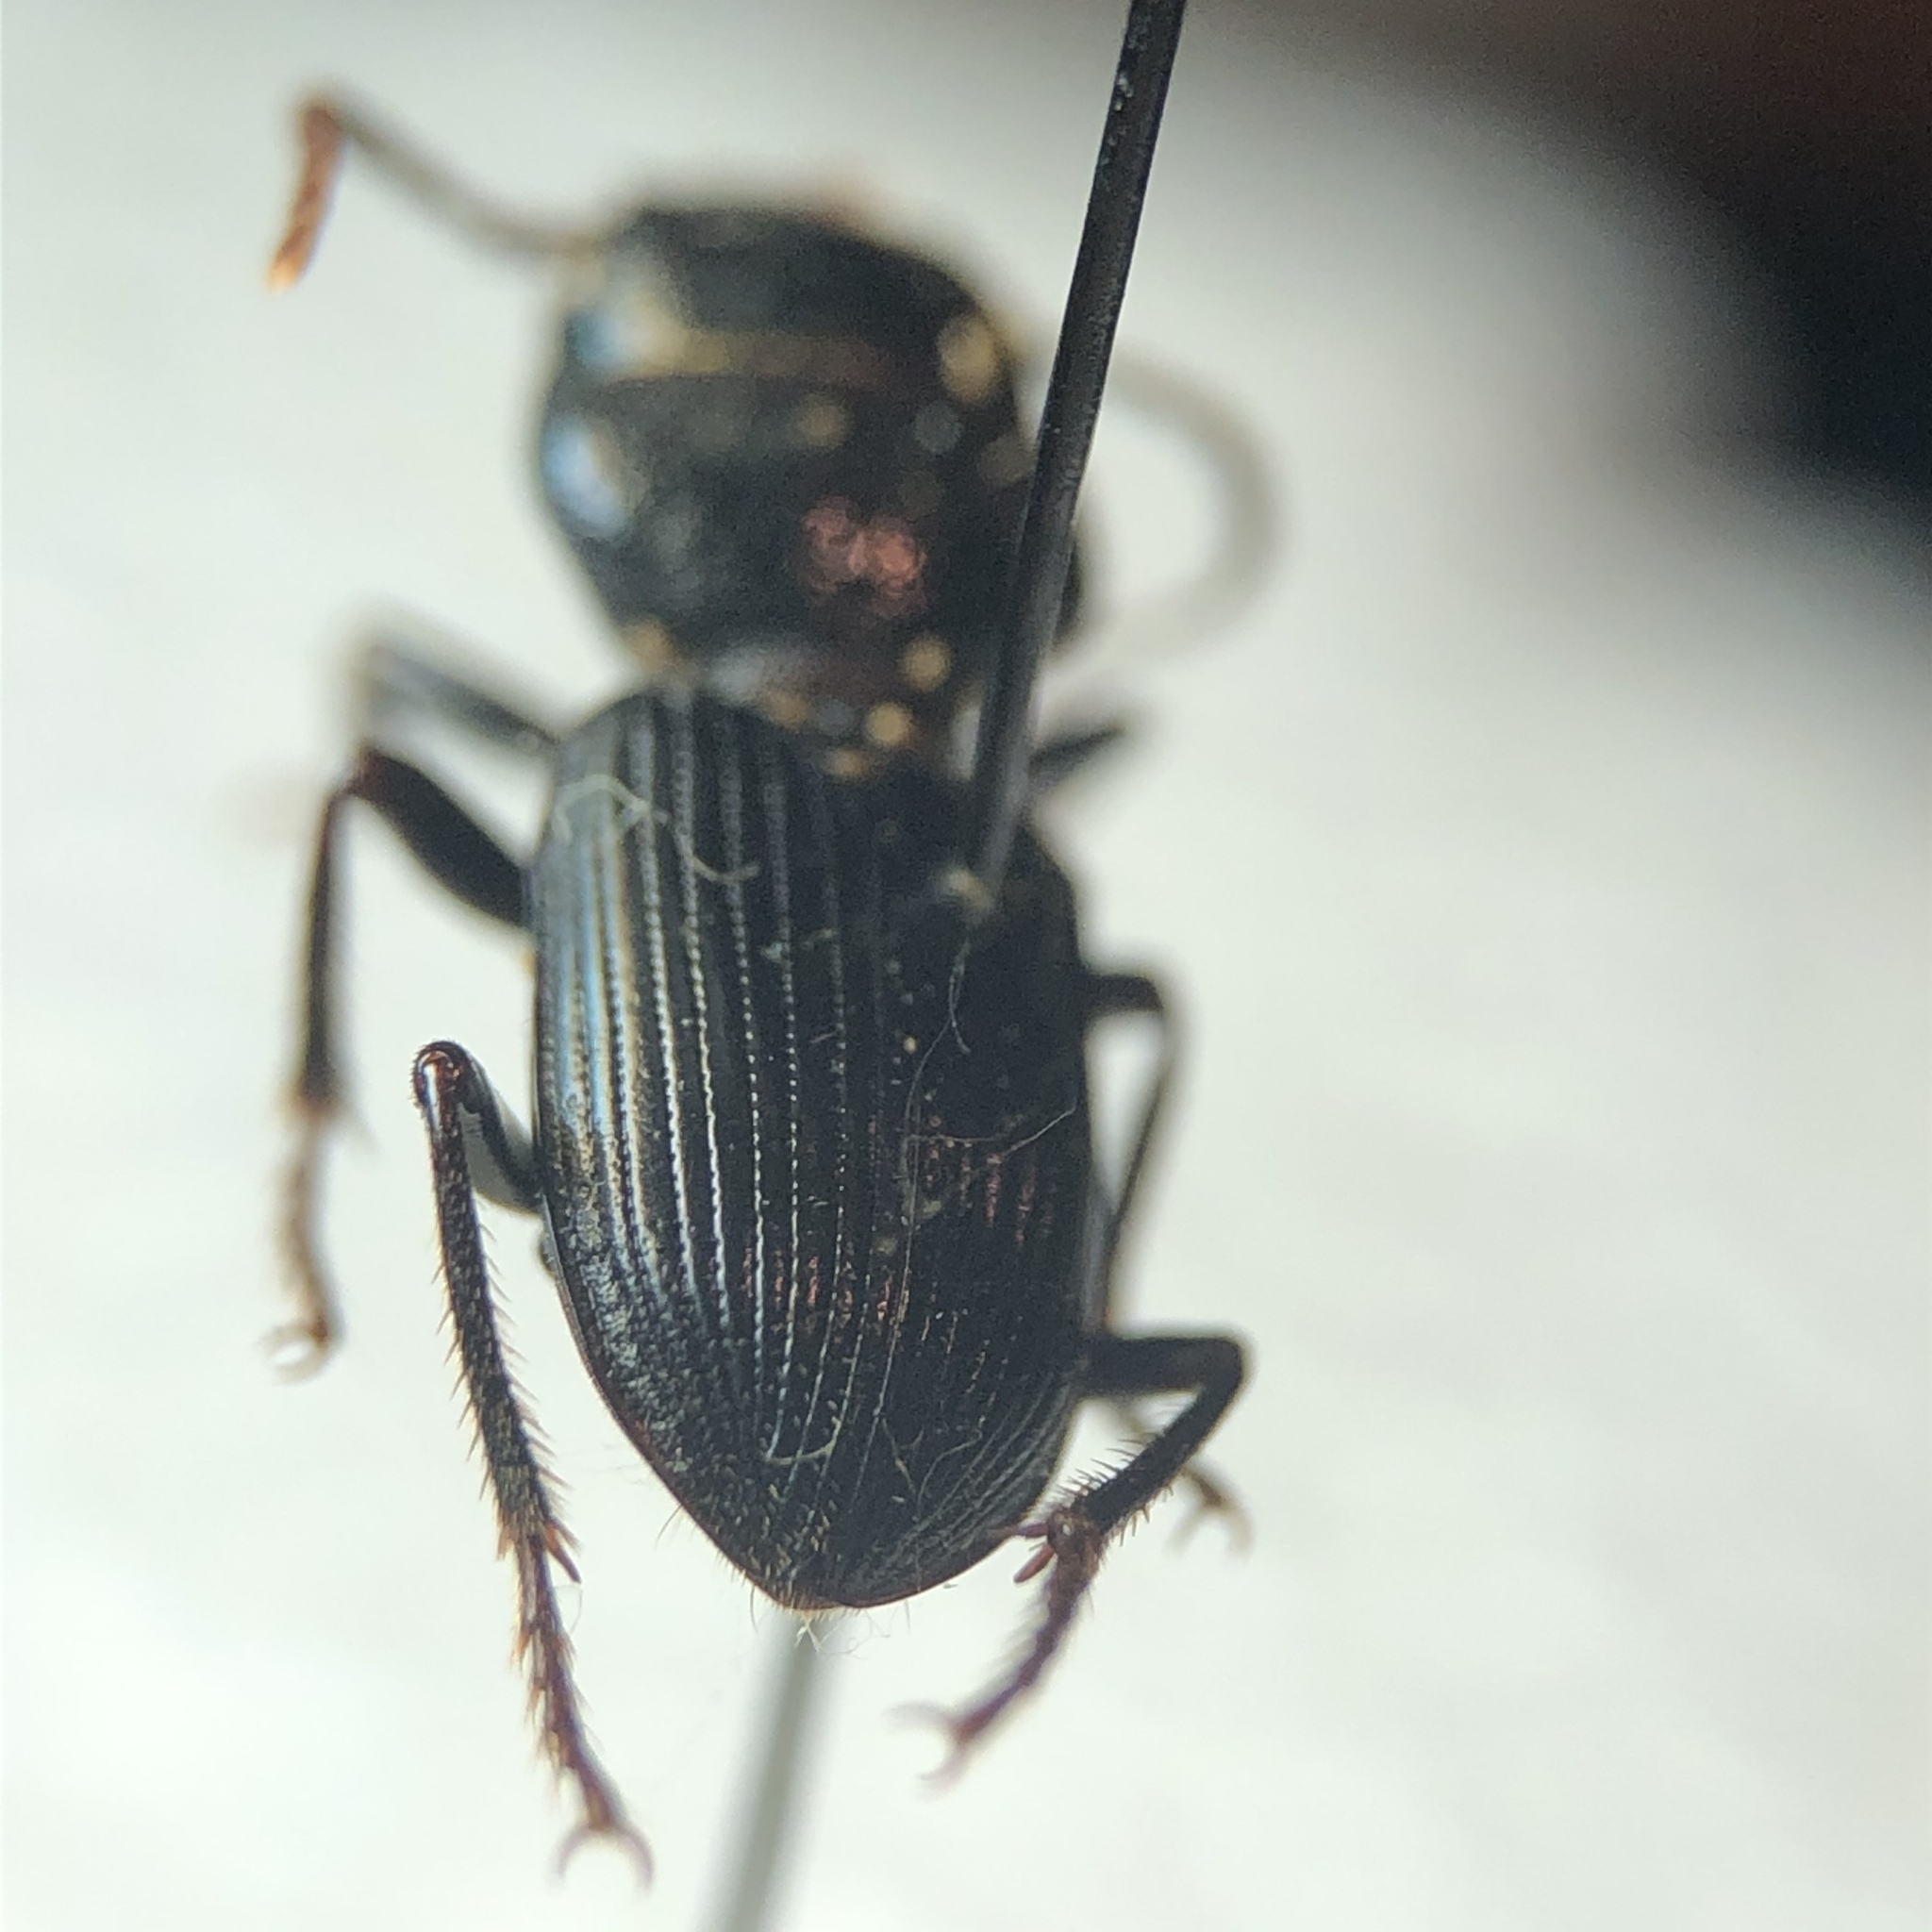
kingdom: Animalia
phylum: Arthropoda
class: Insecta
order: Coleoptera
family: Carabidae
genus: Dixus
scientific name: Dixus clypeatus
